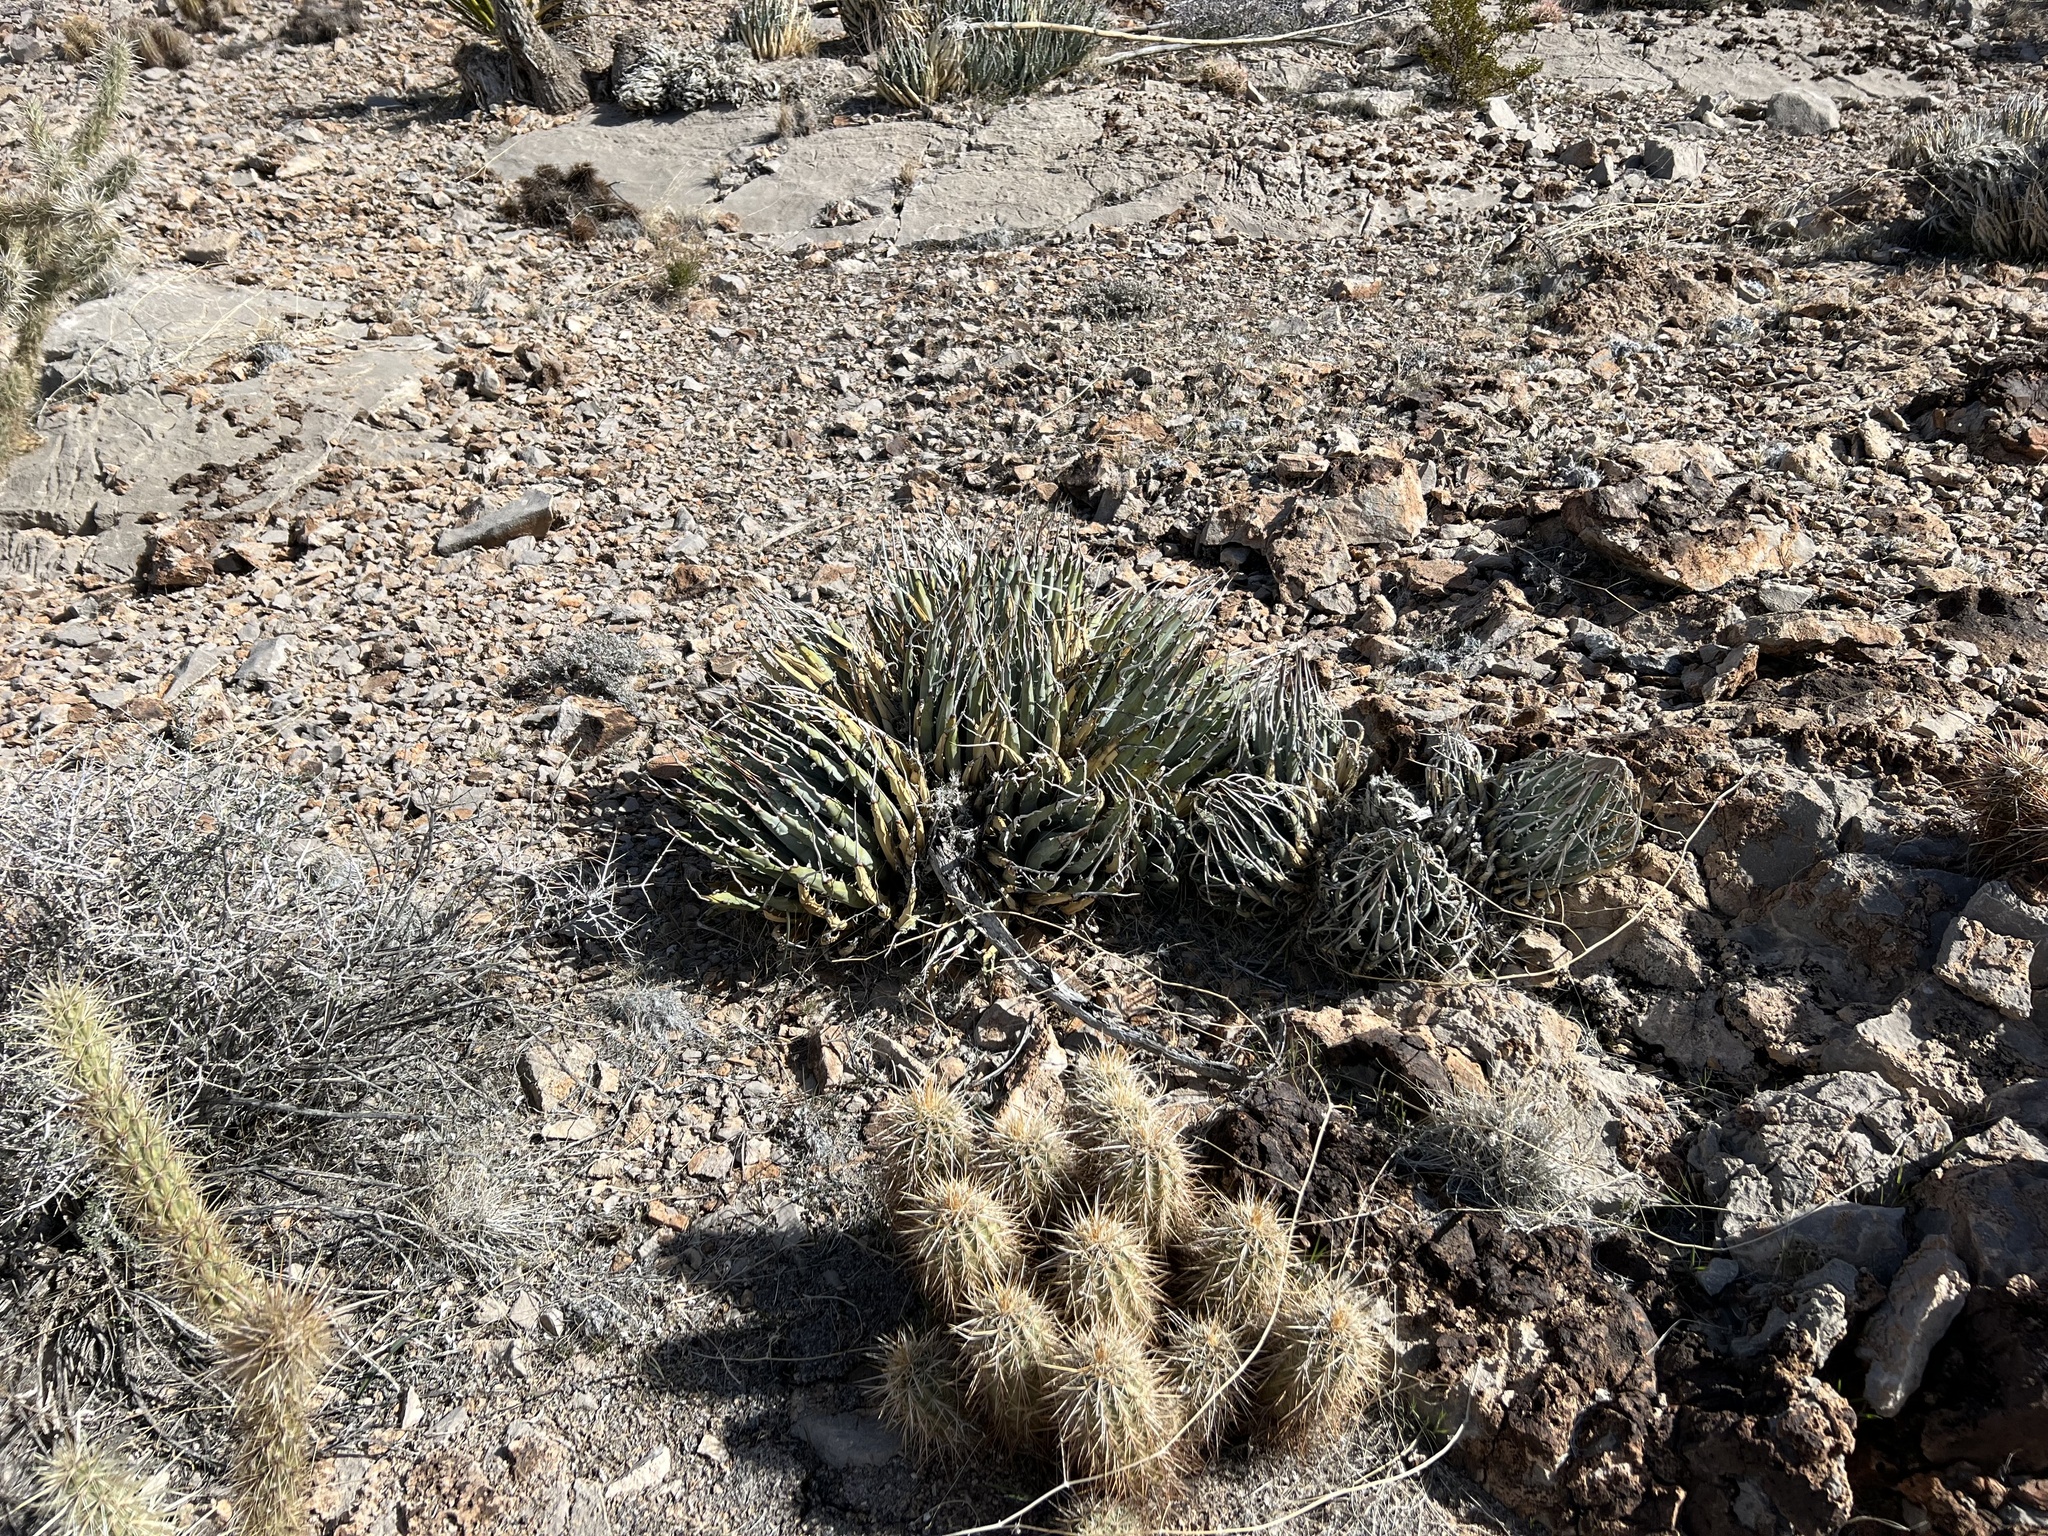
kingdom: Plantae
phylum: Tracheophyta
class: Liliopsida
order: Asparagales
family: Asparagaceae
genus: Agave
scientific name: Agave utahensis
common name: Utah agave
